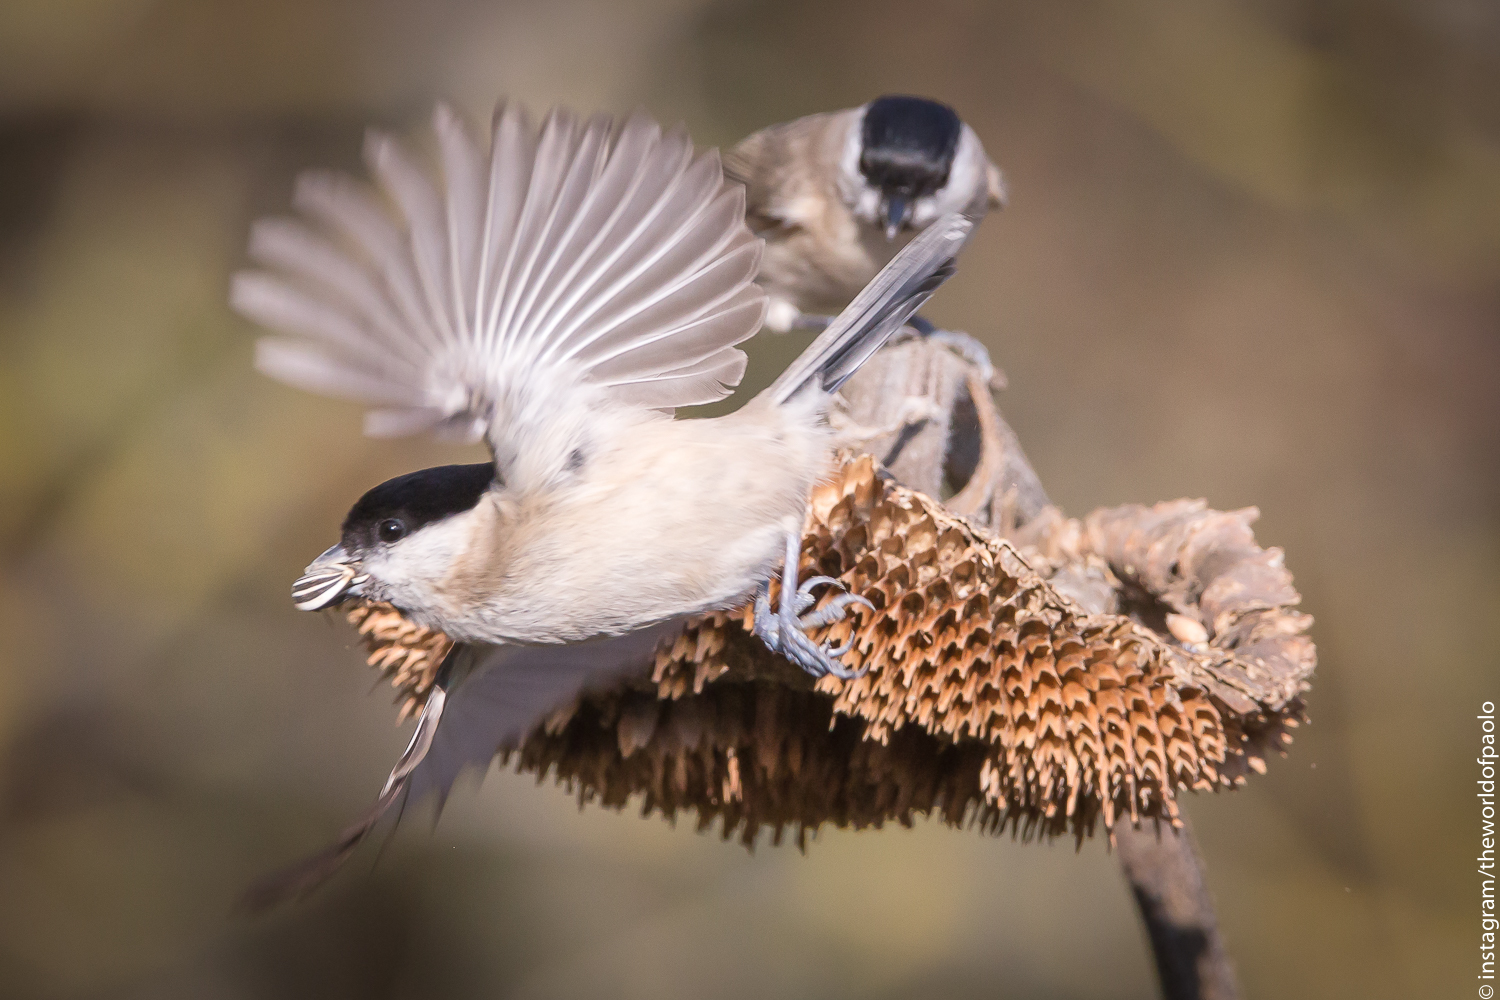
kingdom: Animalia
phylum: Chordata
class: Aves
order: Passeriformes
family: Paridae
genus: Poecile
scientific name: Poecile palustris
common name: Marsh tit
